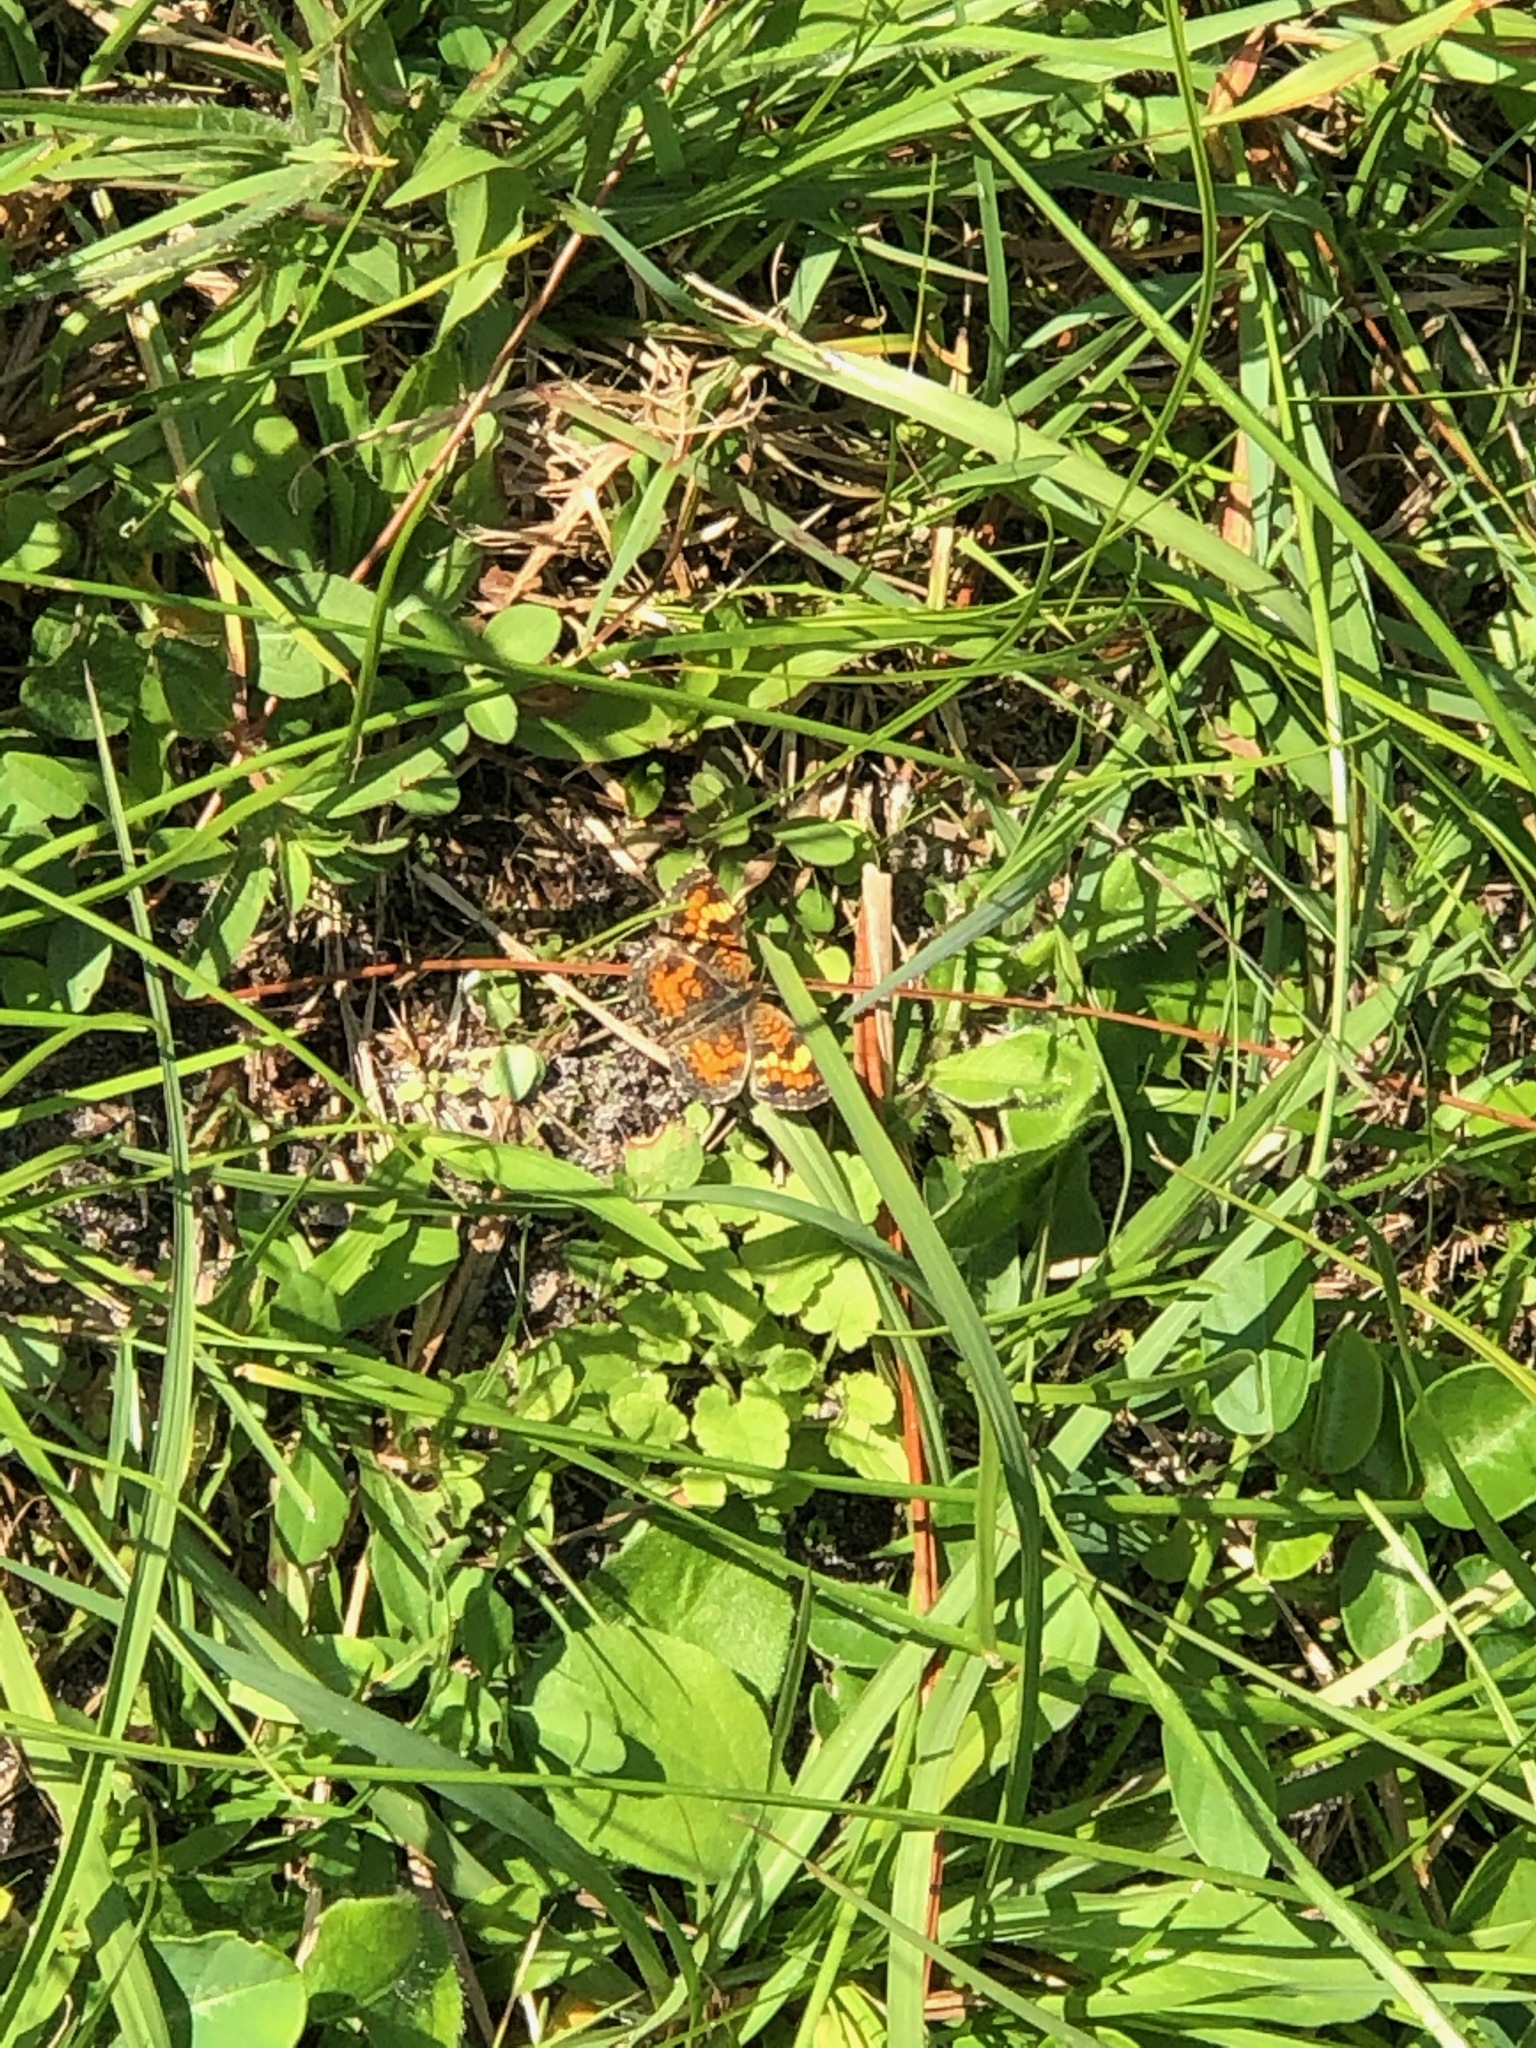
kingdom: Animalia
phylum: Arthropoda
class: Insecta
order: Lepidoptera
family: Nymphalidae
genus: Phyciodes
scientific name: Phyciodes phaon
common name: Phaon crescent
